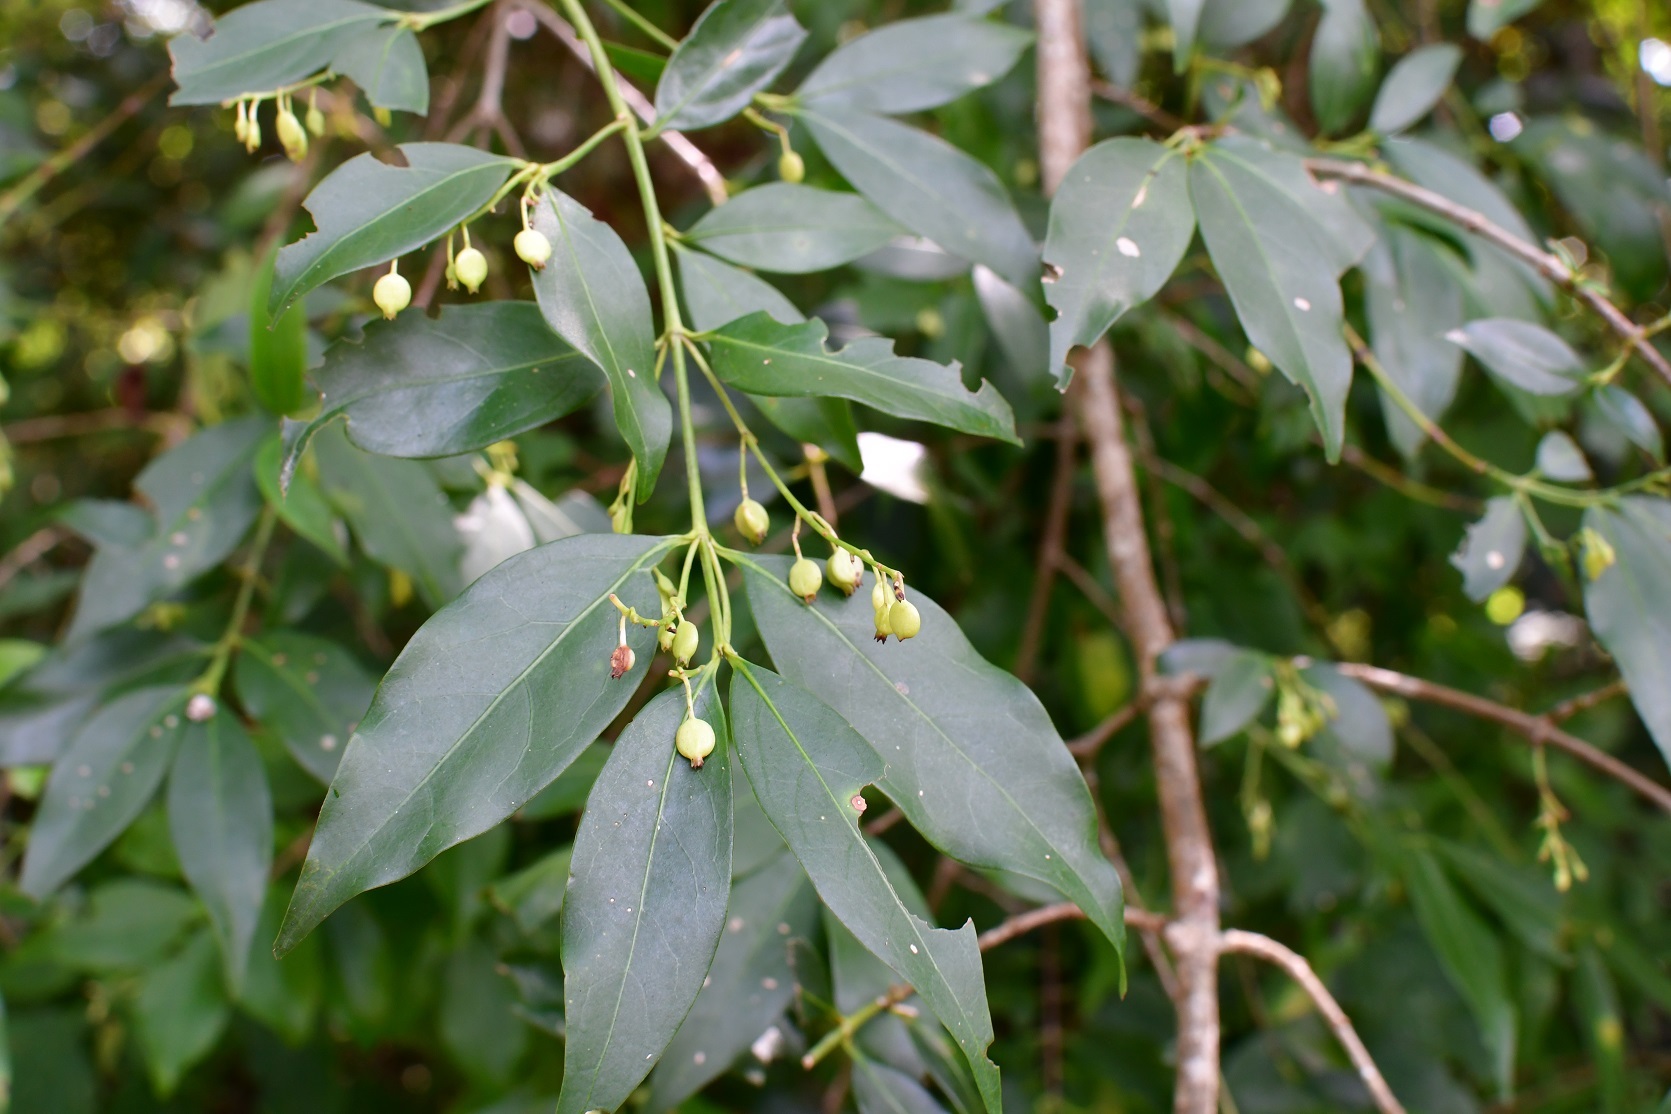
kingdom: Plantae
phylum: Tracheophyta
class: Magnoliopsida
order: Gentianales
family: Rubiaceae
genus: Chiococca
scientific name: Chiococca alba
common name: Snowberry
